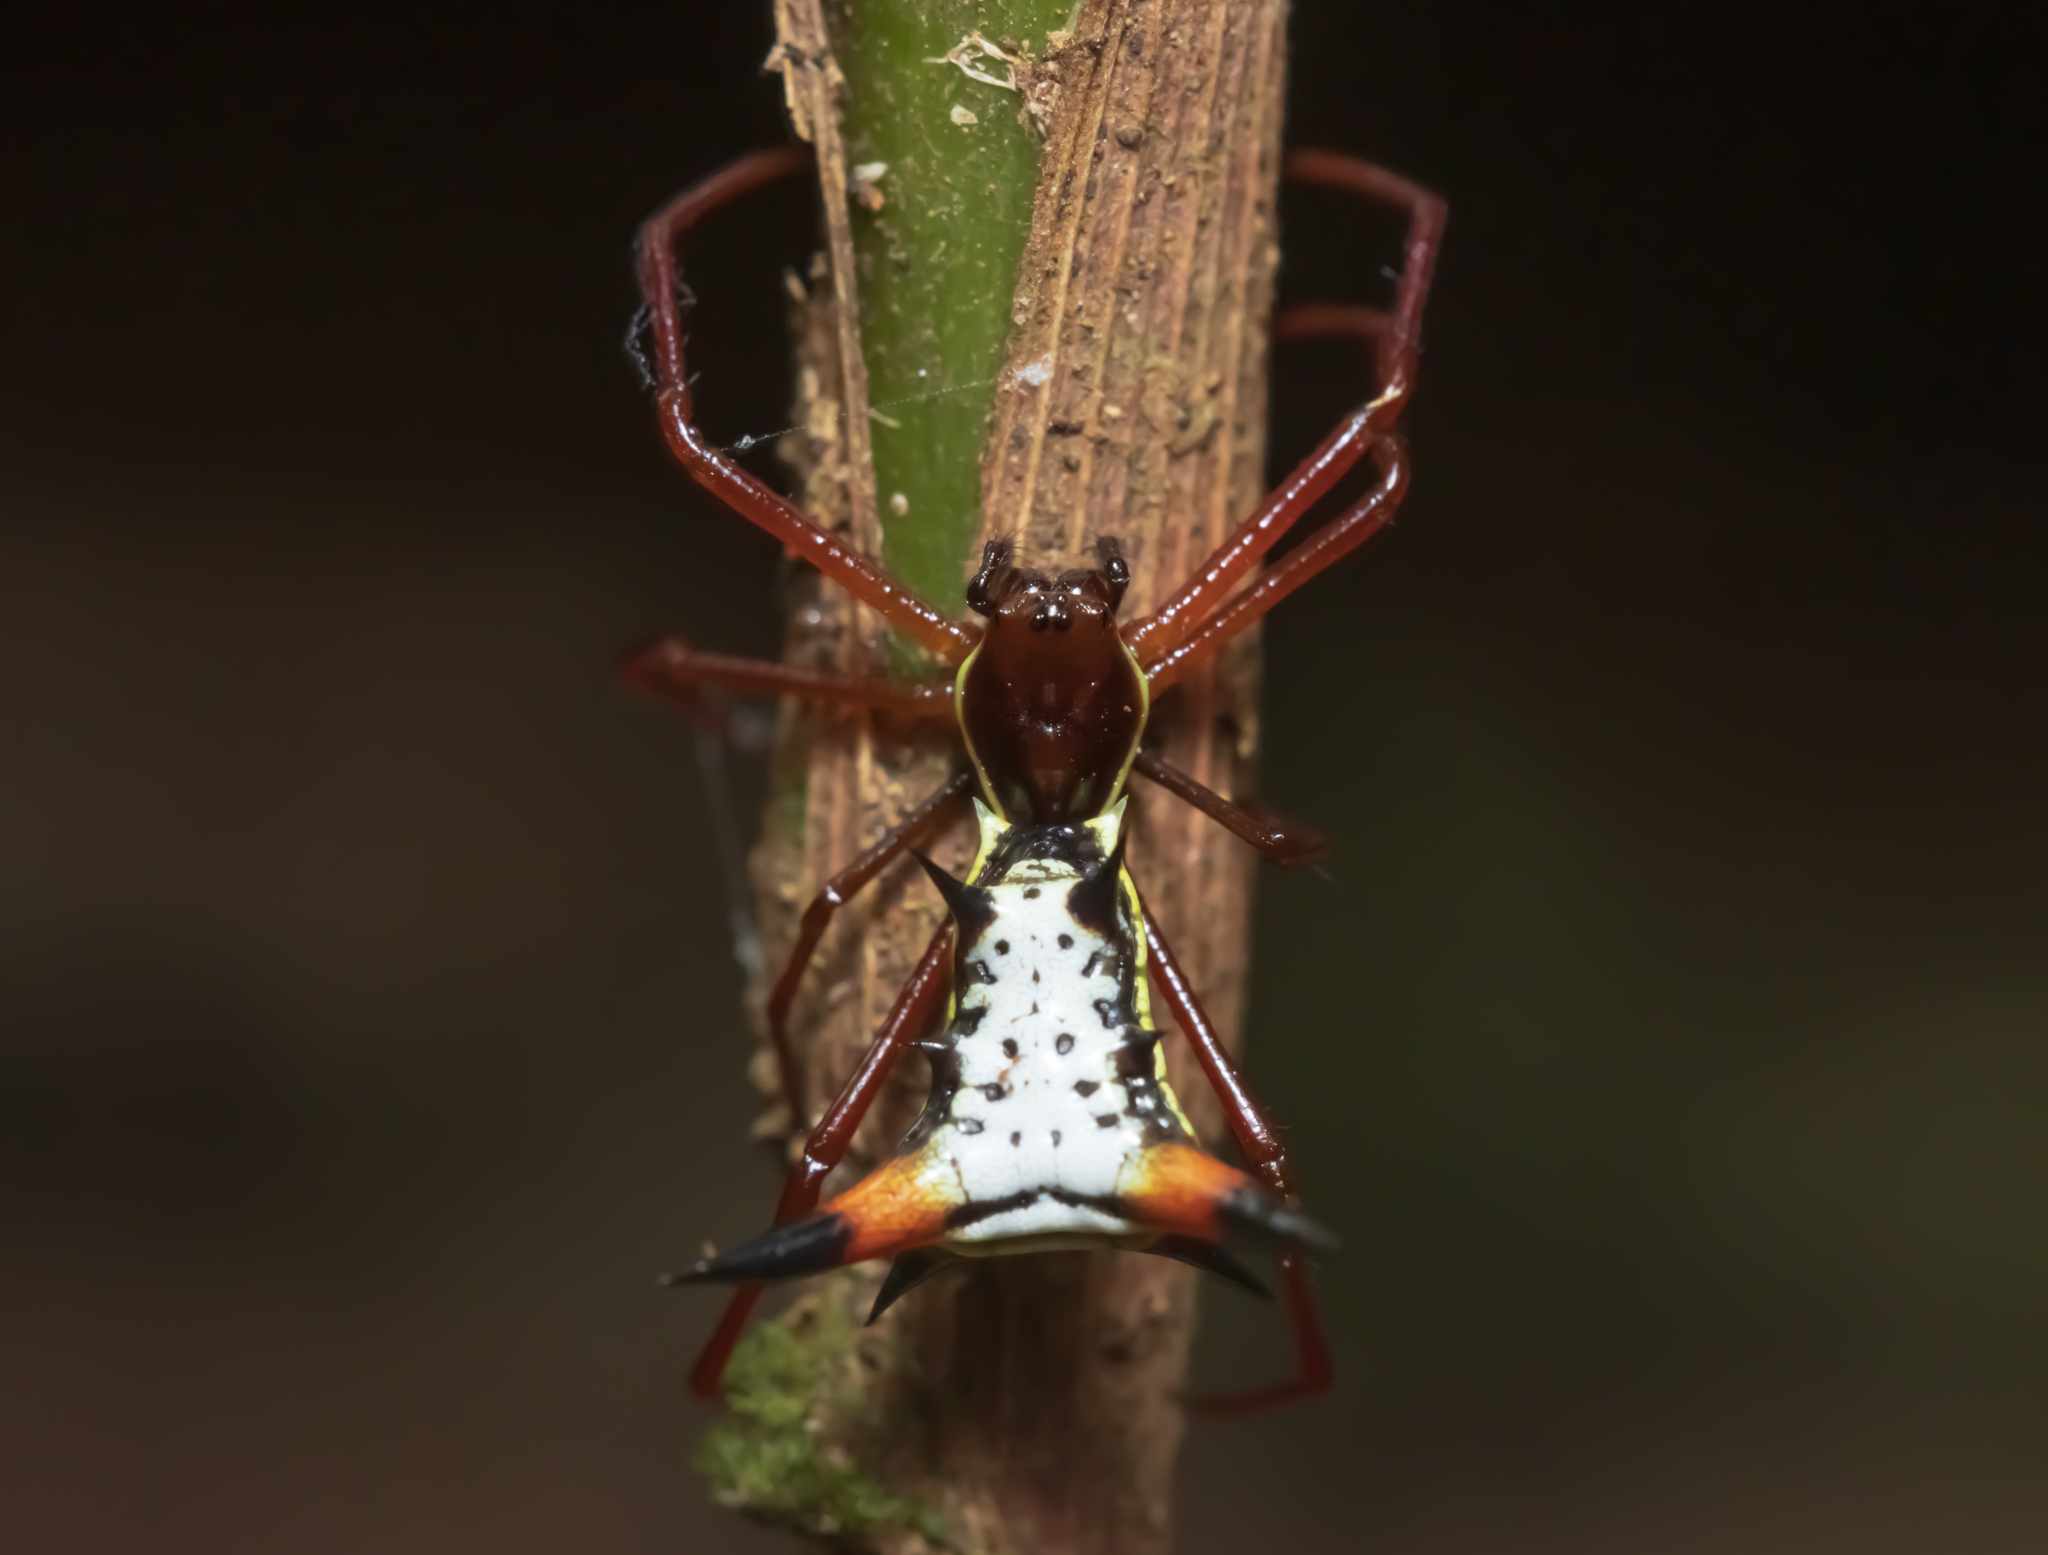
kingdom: Animalia
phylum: Arthropoda
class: Arachnida
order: Araneae
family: Araneidae
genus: Micrathena
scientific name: Micrathena schreibersi
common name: Orb weavers
